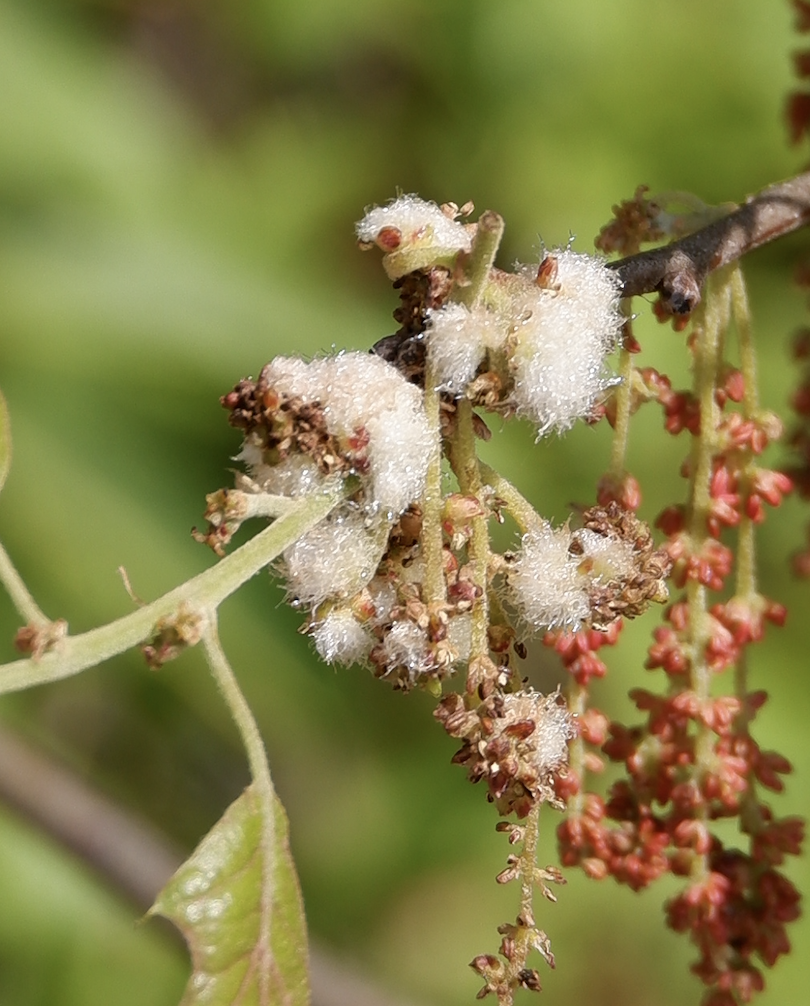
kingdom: Animalia
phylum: Arthropoda
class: Insecta
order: Hymenoptera
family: Cynipidae
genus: Callirhytis
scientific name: Callirhytis
